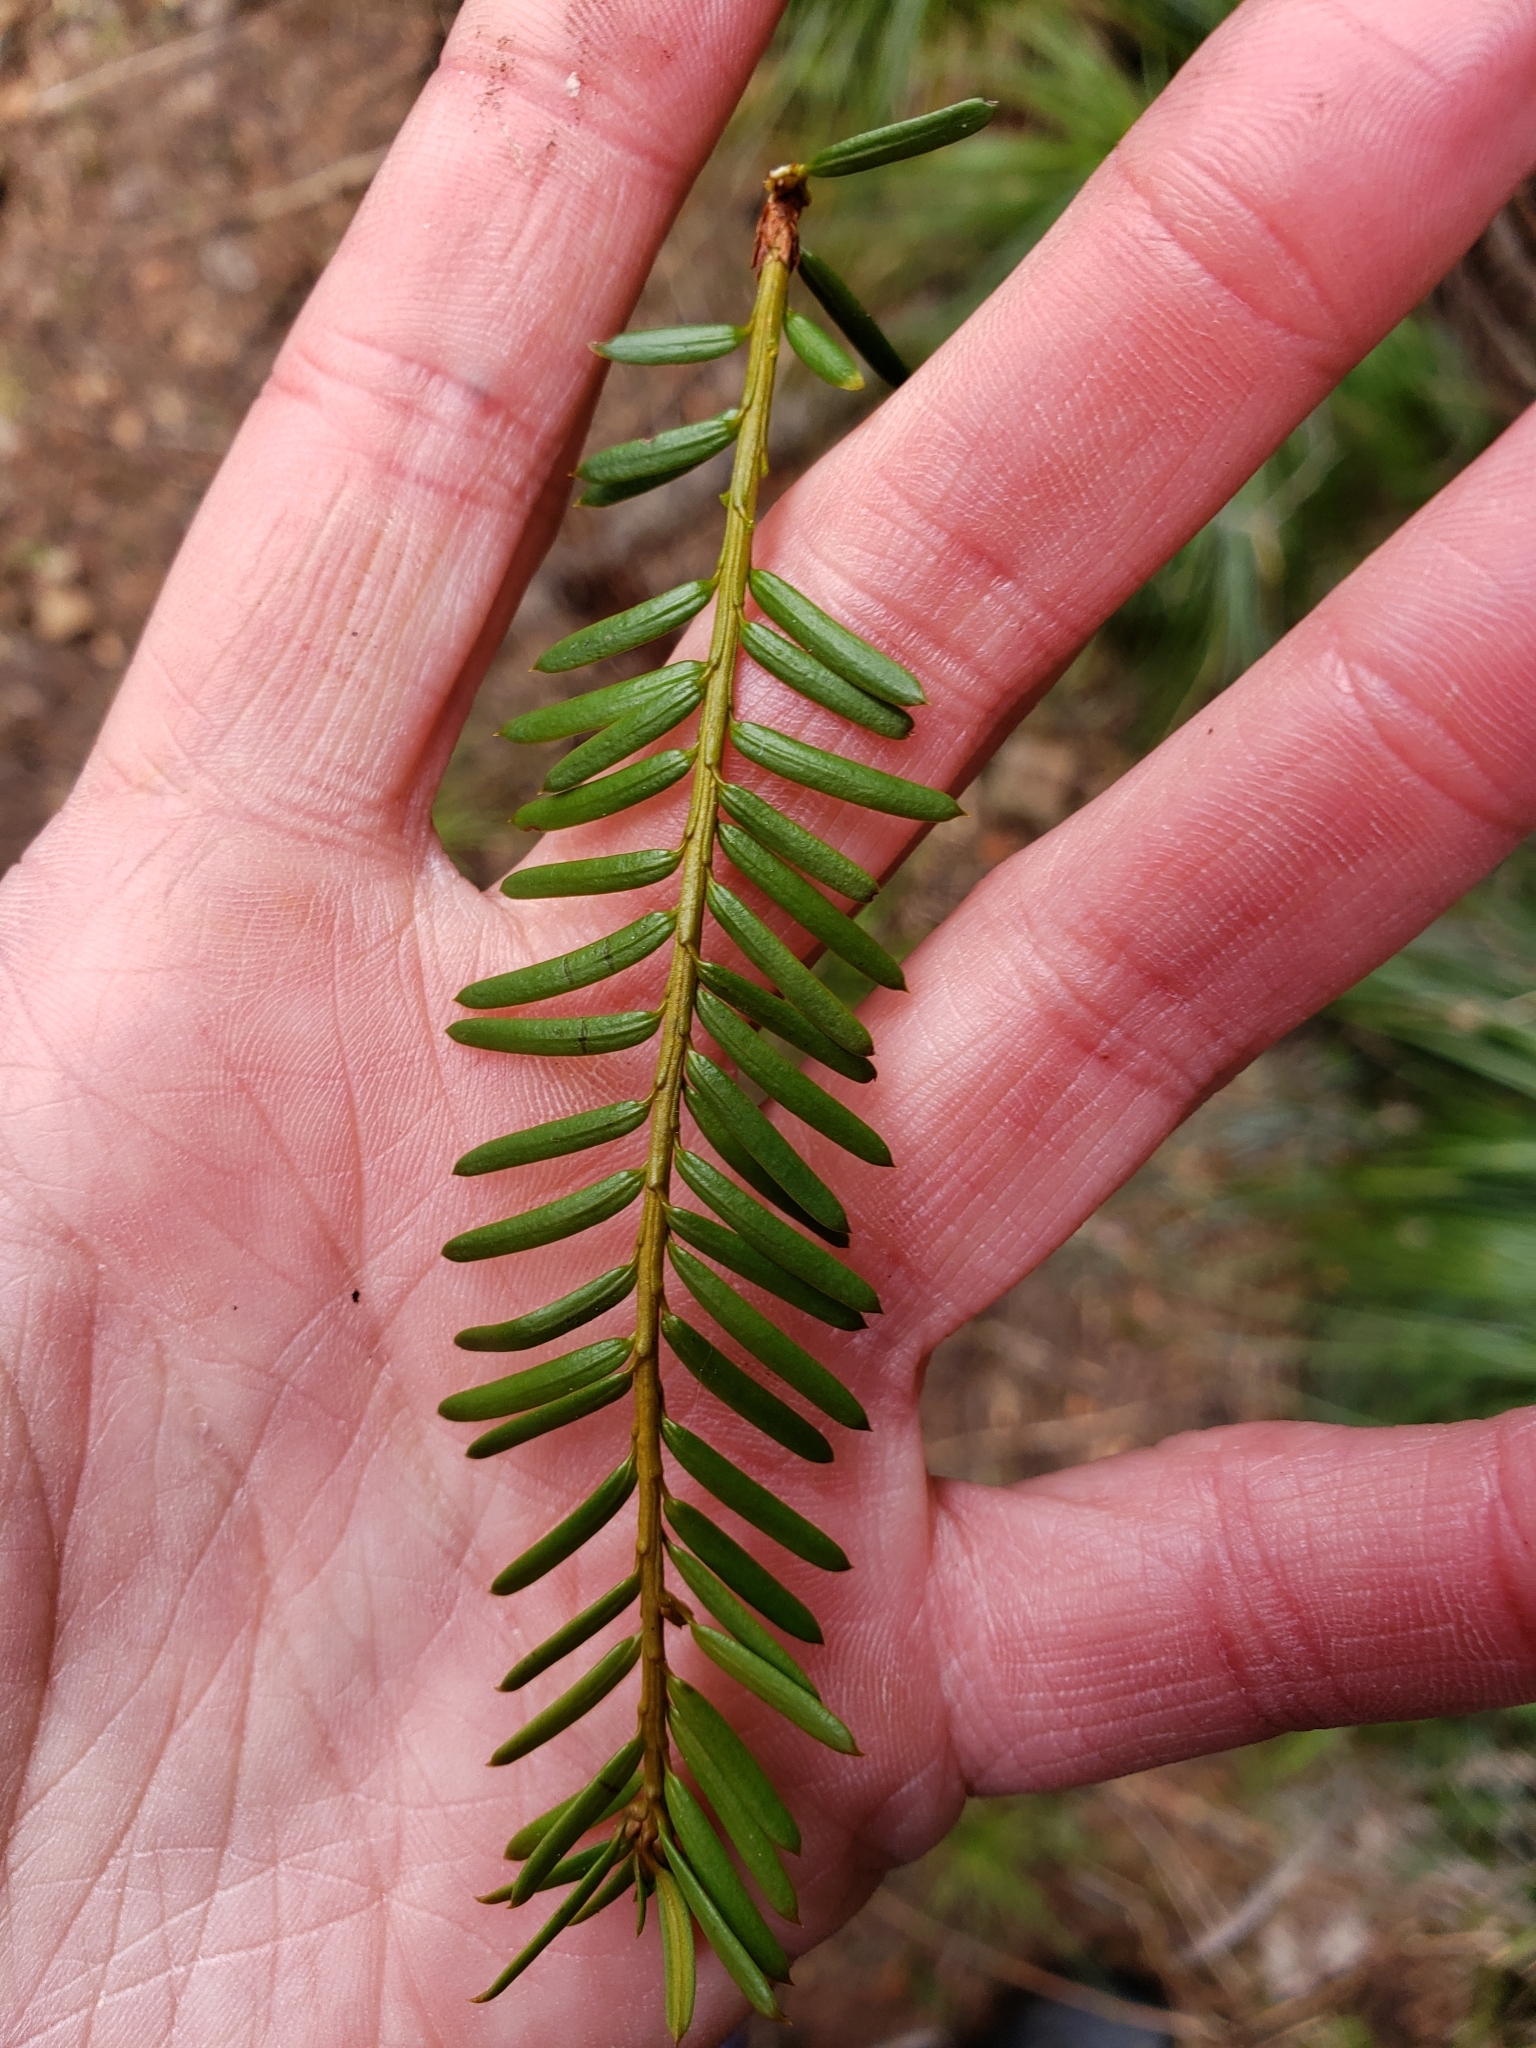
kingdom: Plantae
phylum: Tracheophyta
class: Pinopsida
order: Pinales
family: Taxaceae
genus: Taxus
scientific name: Taxus brevifolia
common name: Pacific yew
